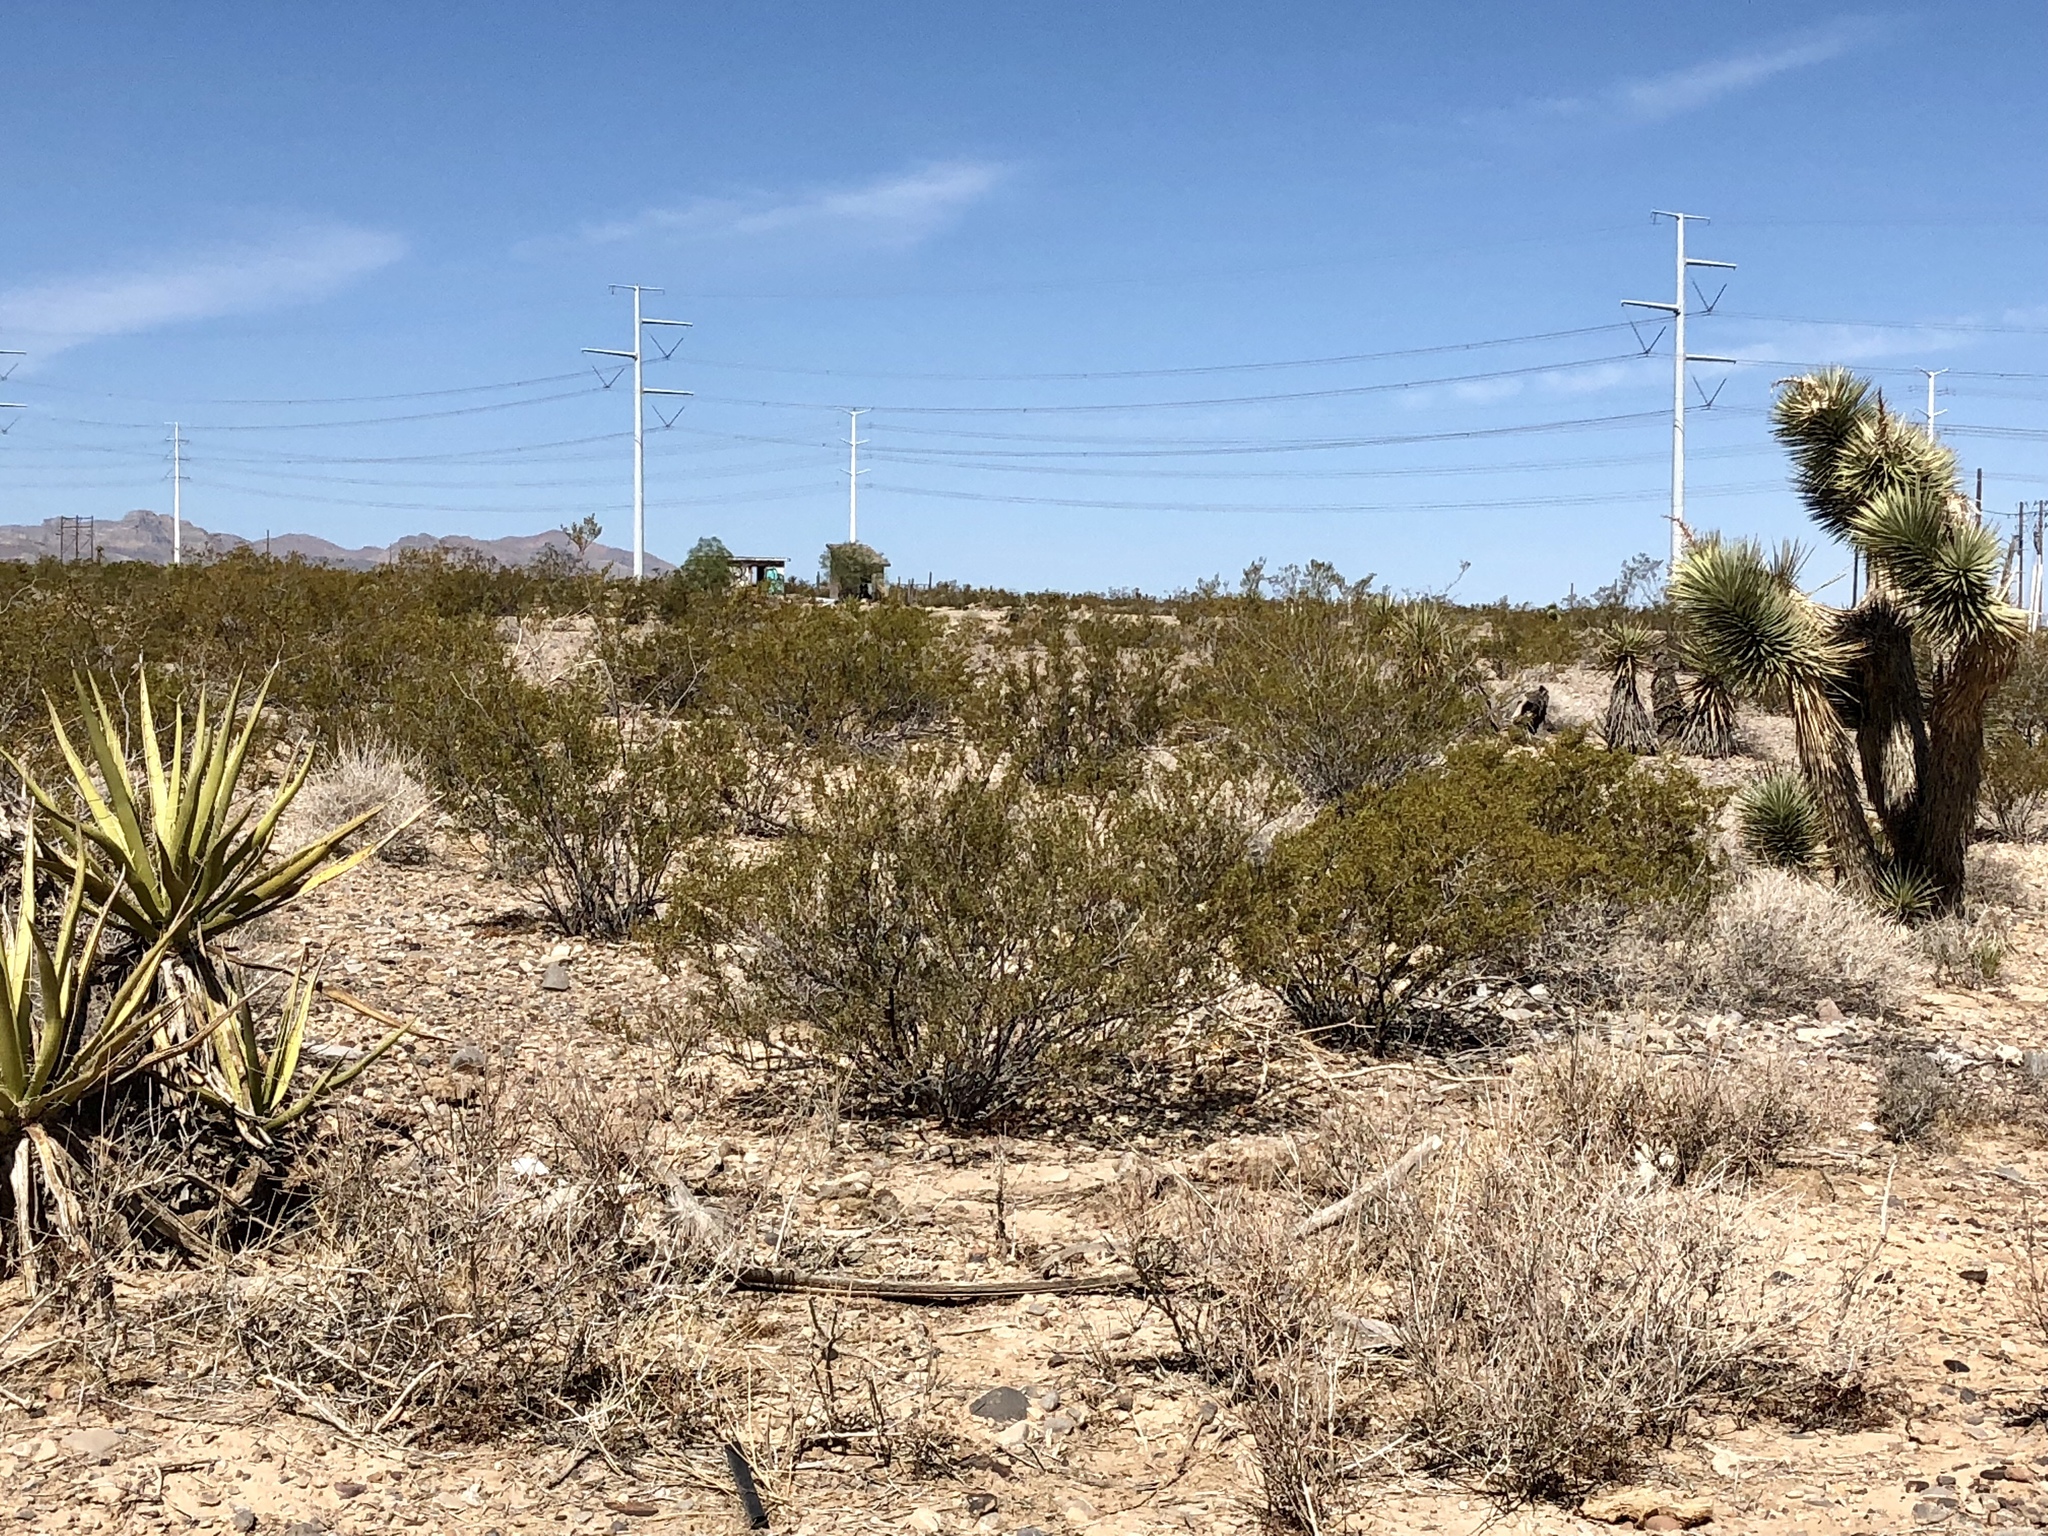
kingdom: Plantae
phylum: Tracheophyta
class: Magnoliopsida
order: Zygophyllales
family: Zygophyllaceae
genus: Larrea
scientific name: Larrea tridentata
